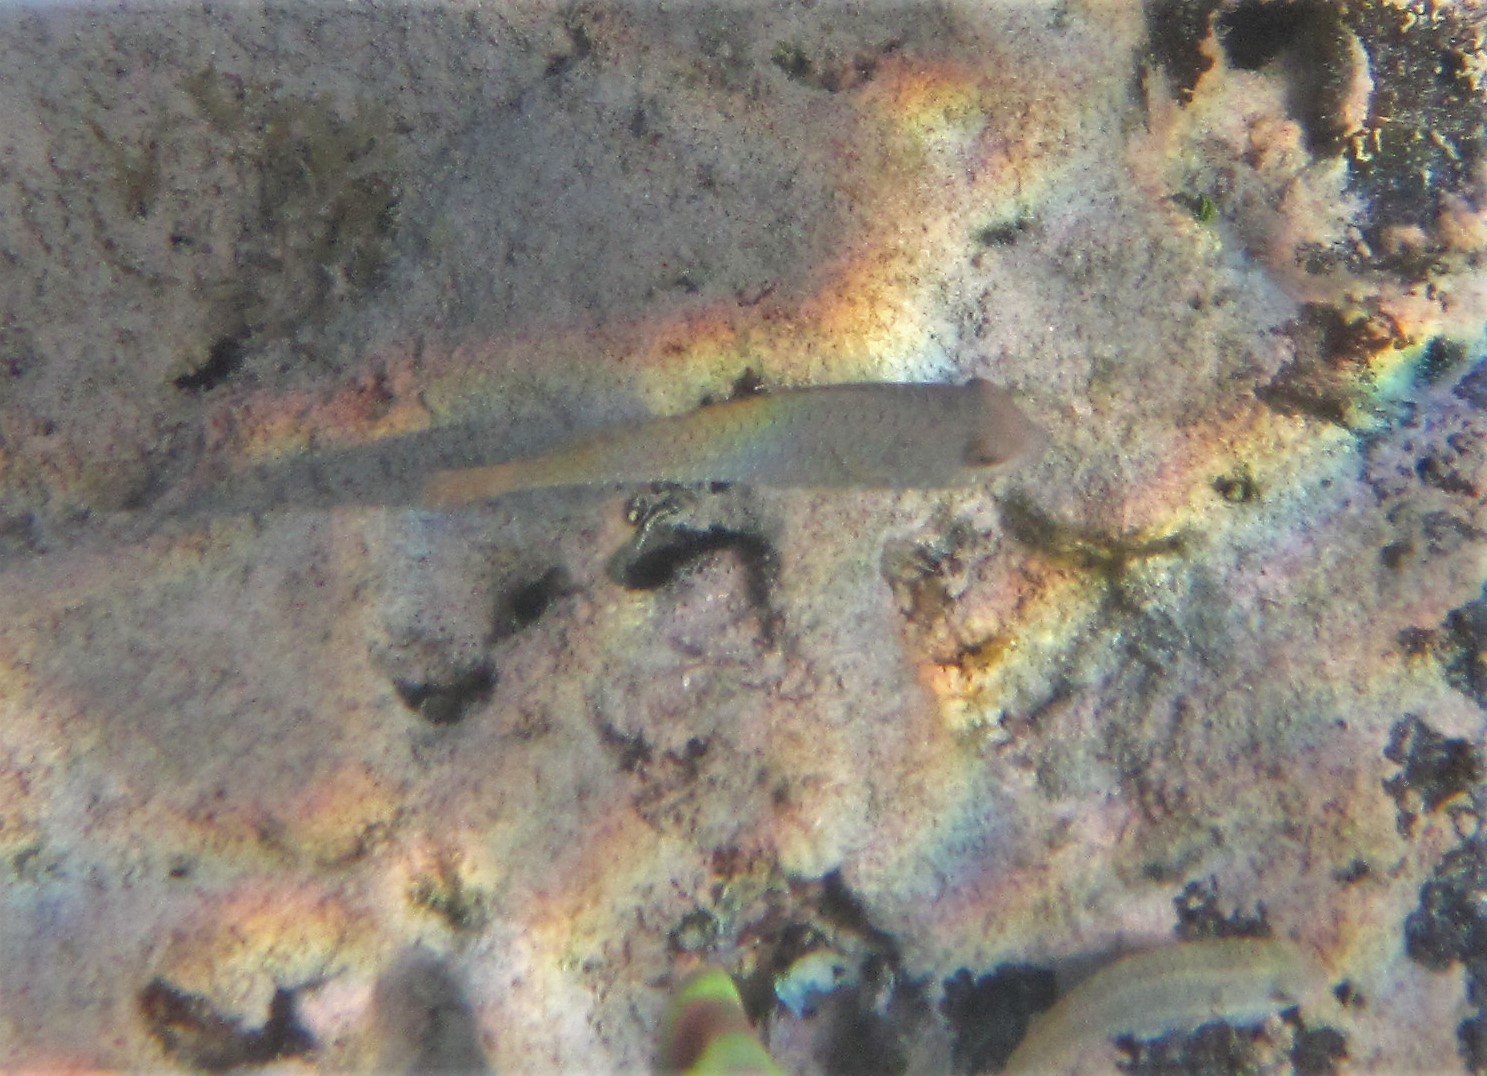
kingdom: Animalia
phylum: Chordata
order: Perciformes
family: Scaridae
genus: Sparisoma
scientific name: Sparisoma
